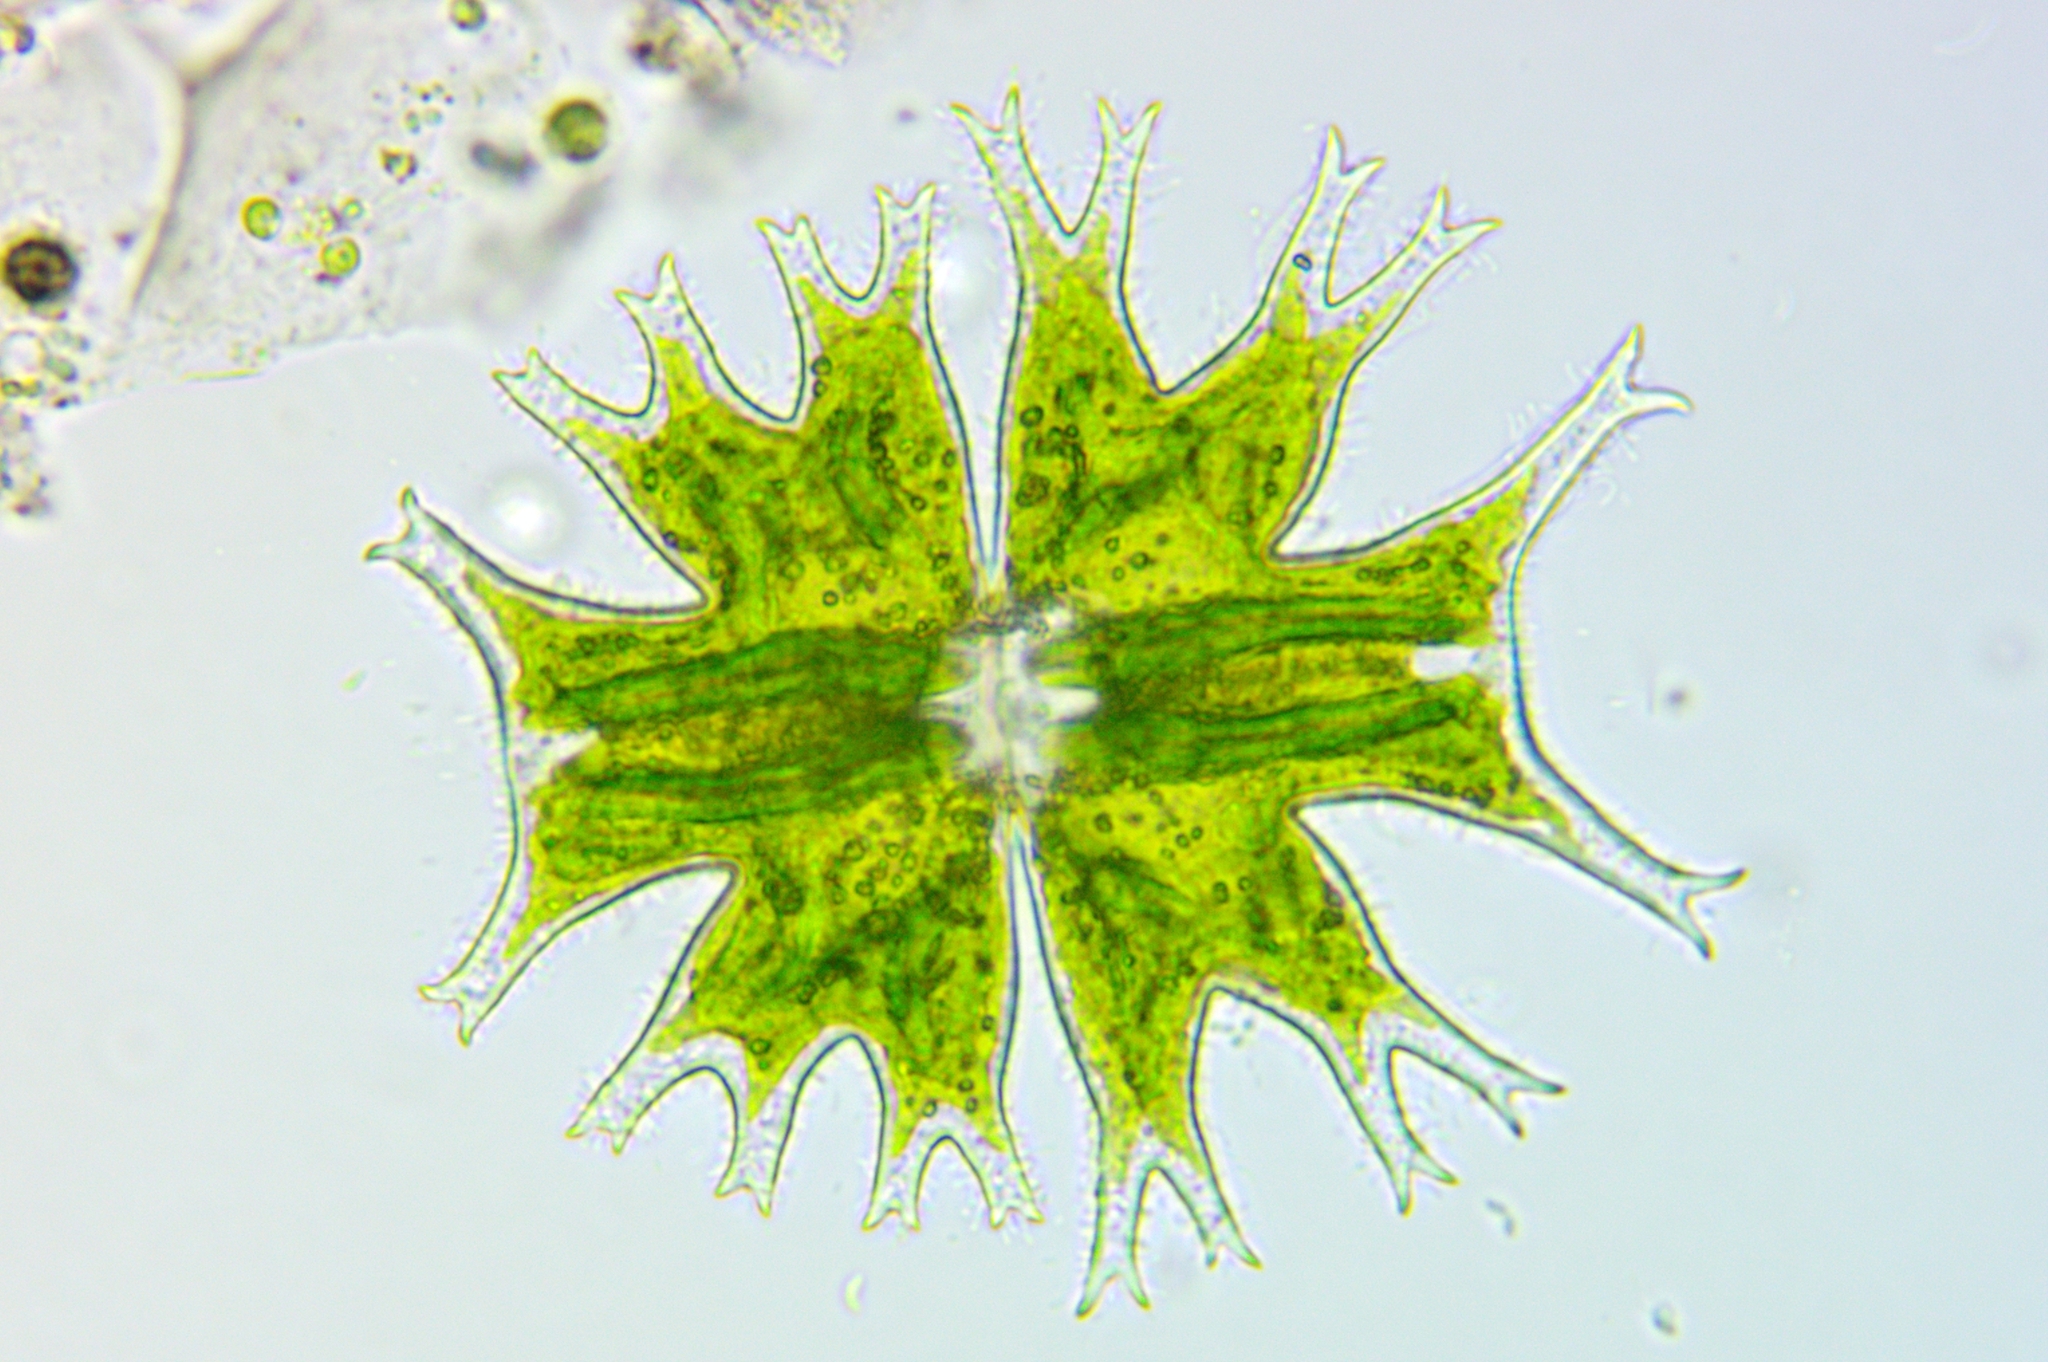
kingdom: Plantae
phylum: Charophyta
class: Conjugatophyceae
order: Desmidiales
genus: Micrasterias
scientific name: Micrasterias furcata
